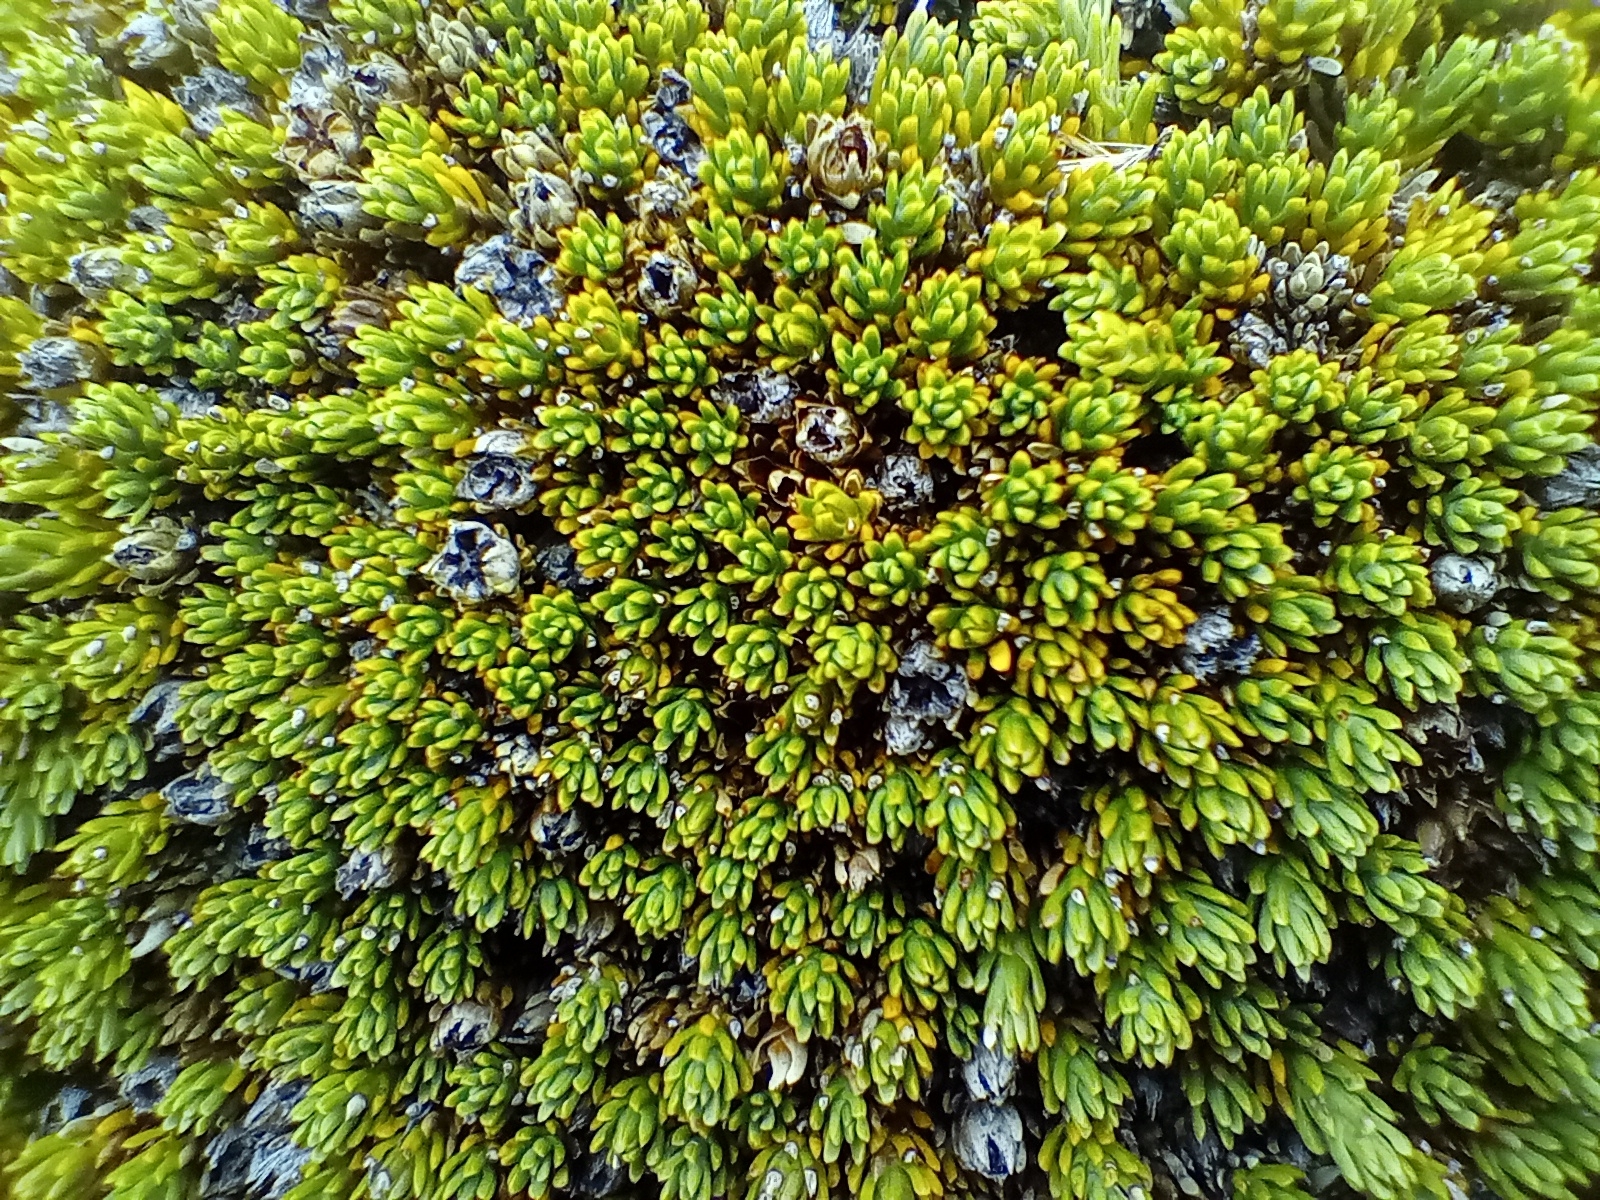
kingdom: Plantae
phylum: Tracheophyta
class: Magnoliopsida
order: Ericales
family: Ericaceae
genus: Dracophyllum
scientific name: Dracophyllum muscoides
